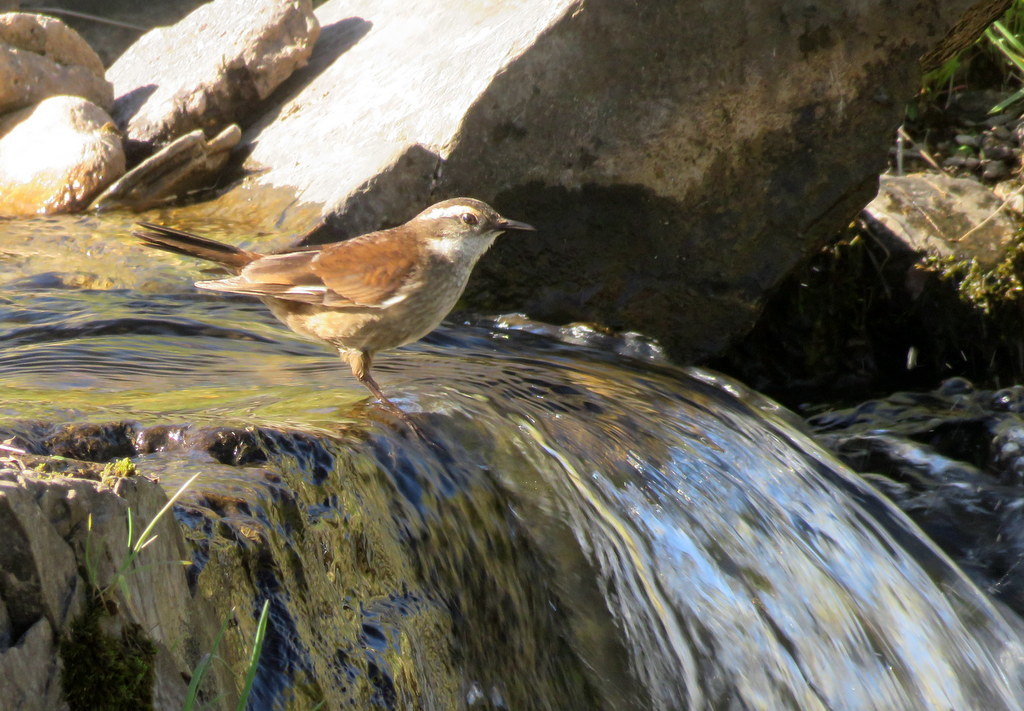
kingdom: Animalia
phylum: Chordata
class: Aves
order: Passeriformes
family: Furnariidae
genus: Cinclodes
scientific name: Cinclodes olrogi
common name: Olrog's cinclodes
